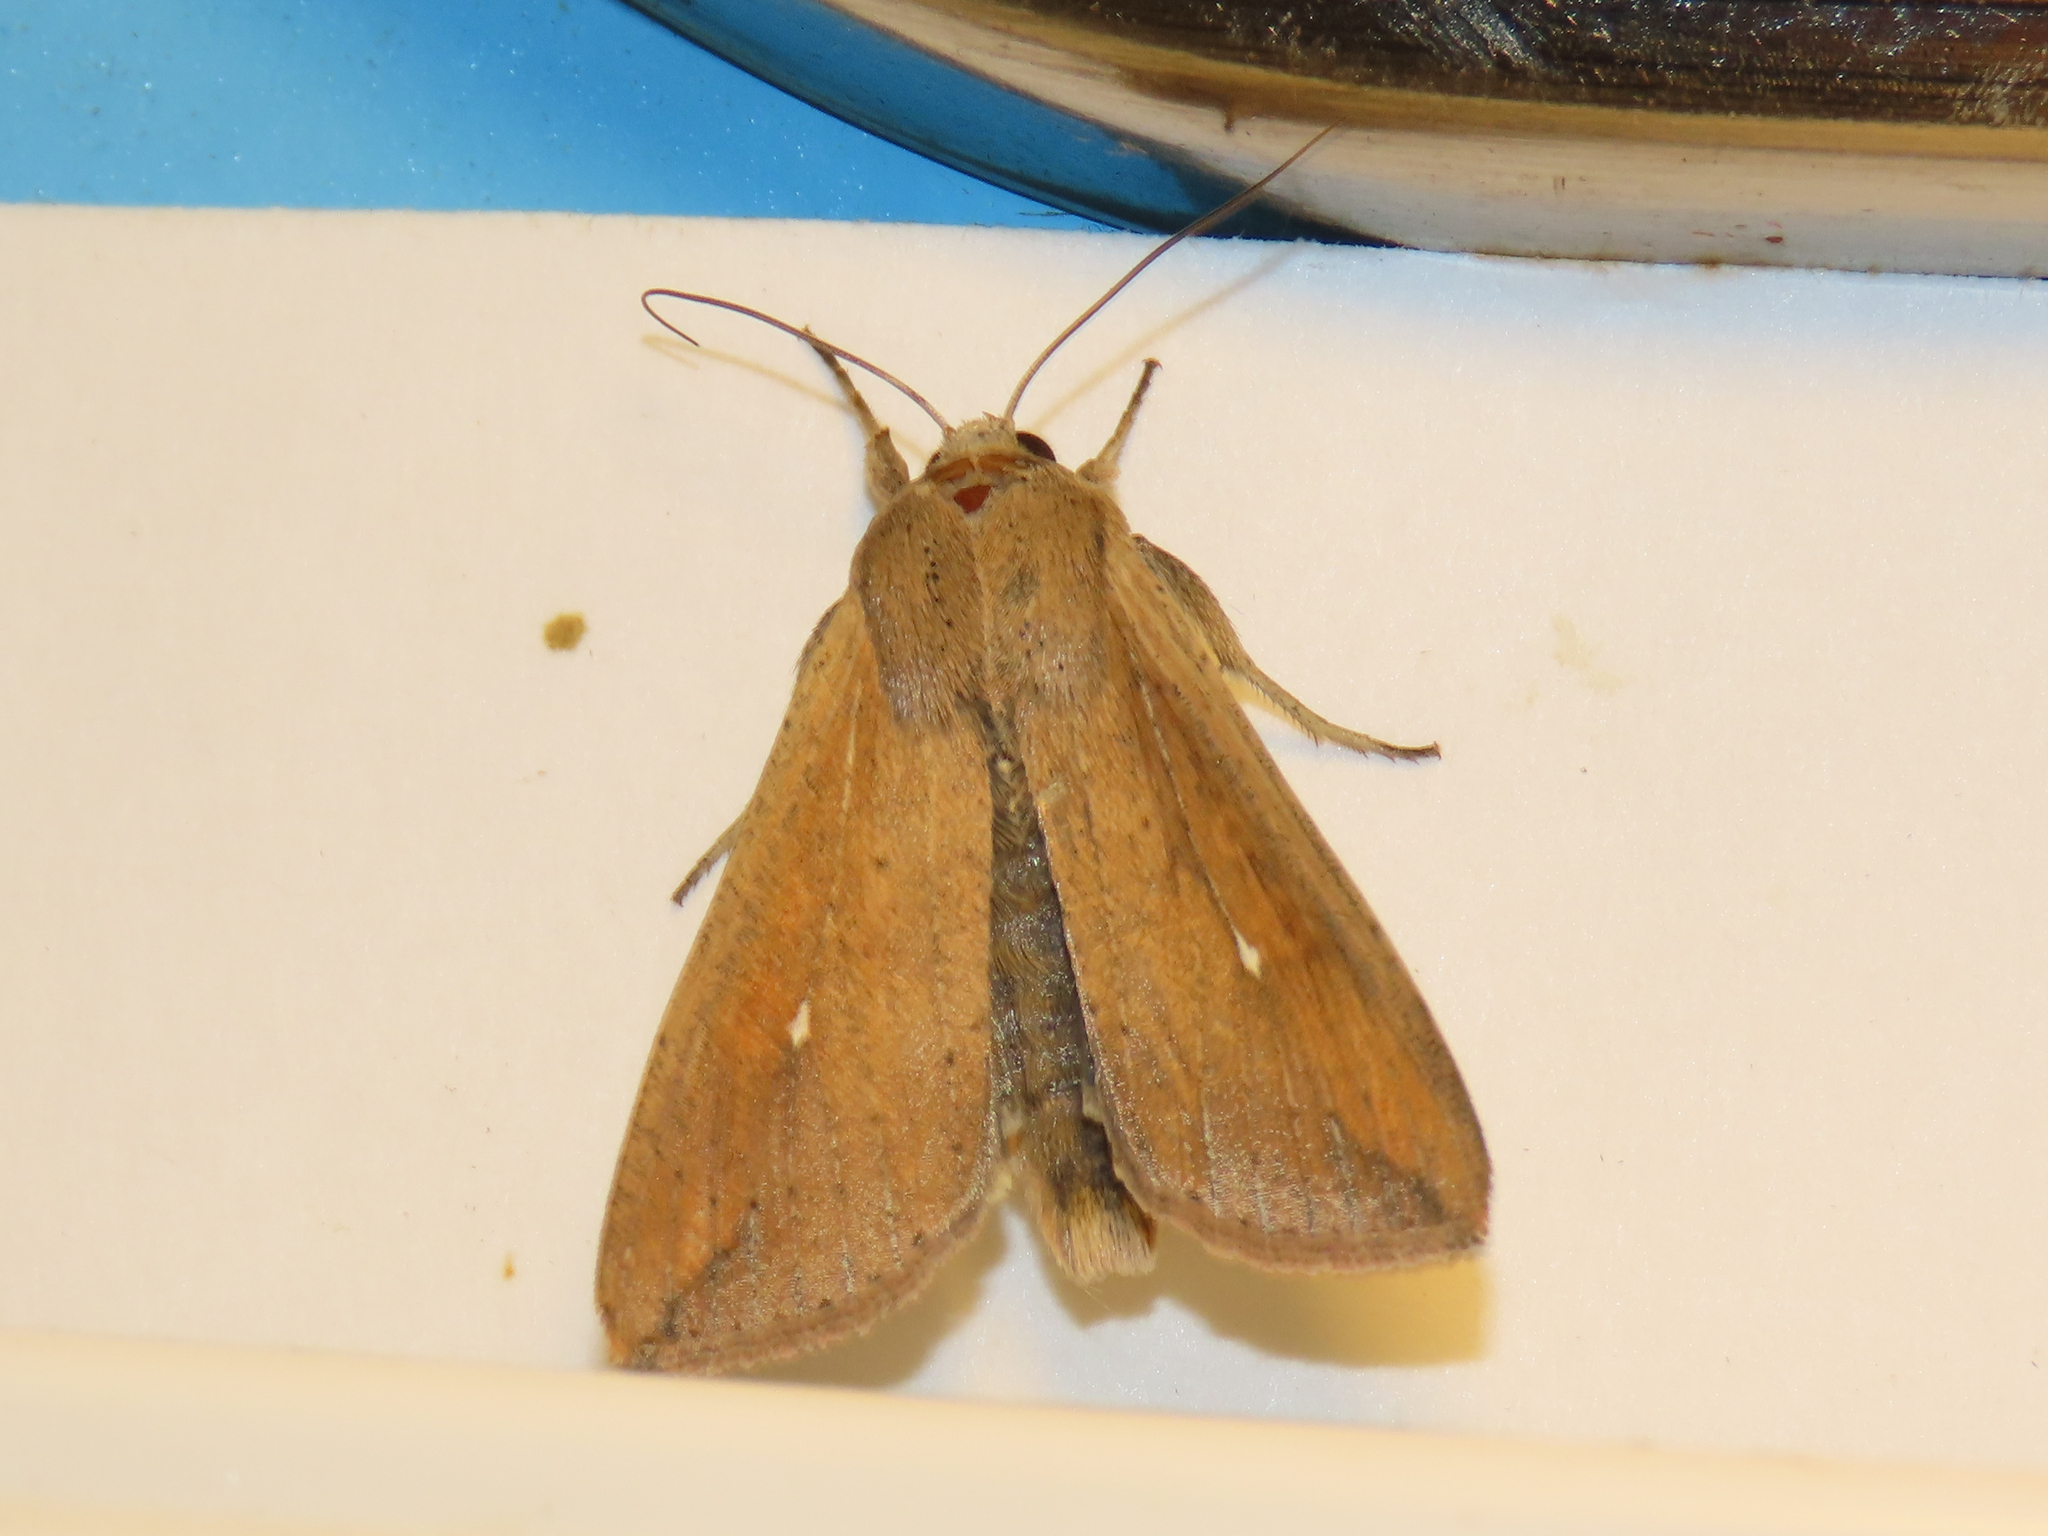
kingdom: Animalia
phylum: Arthropoda
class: Insecta
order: Lepidoptera
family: Noctuidae
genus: Mythimna
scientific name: Mythimna unipuncta
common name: White-speck
